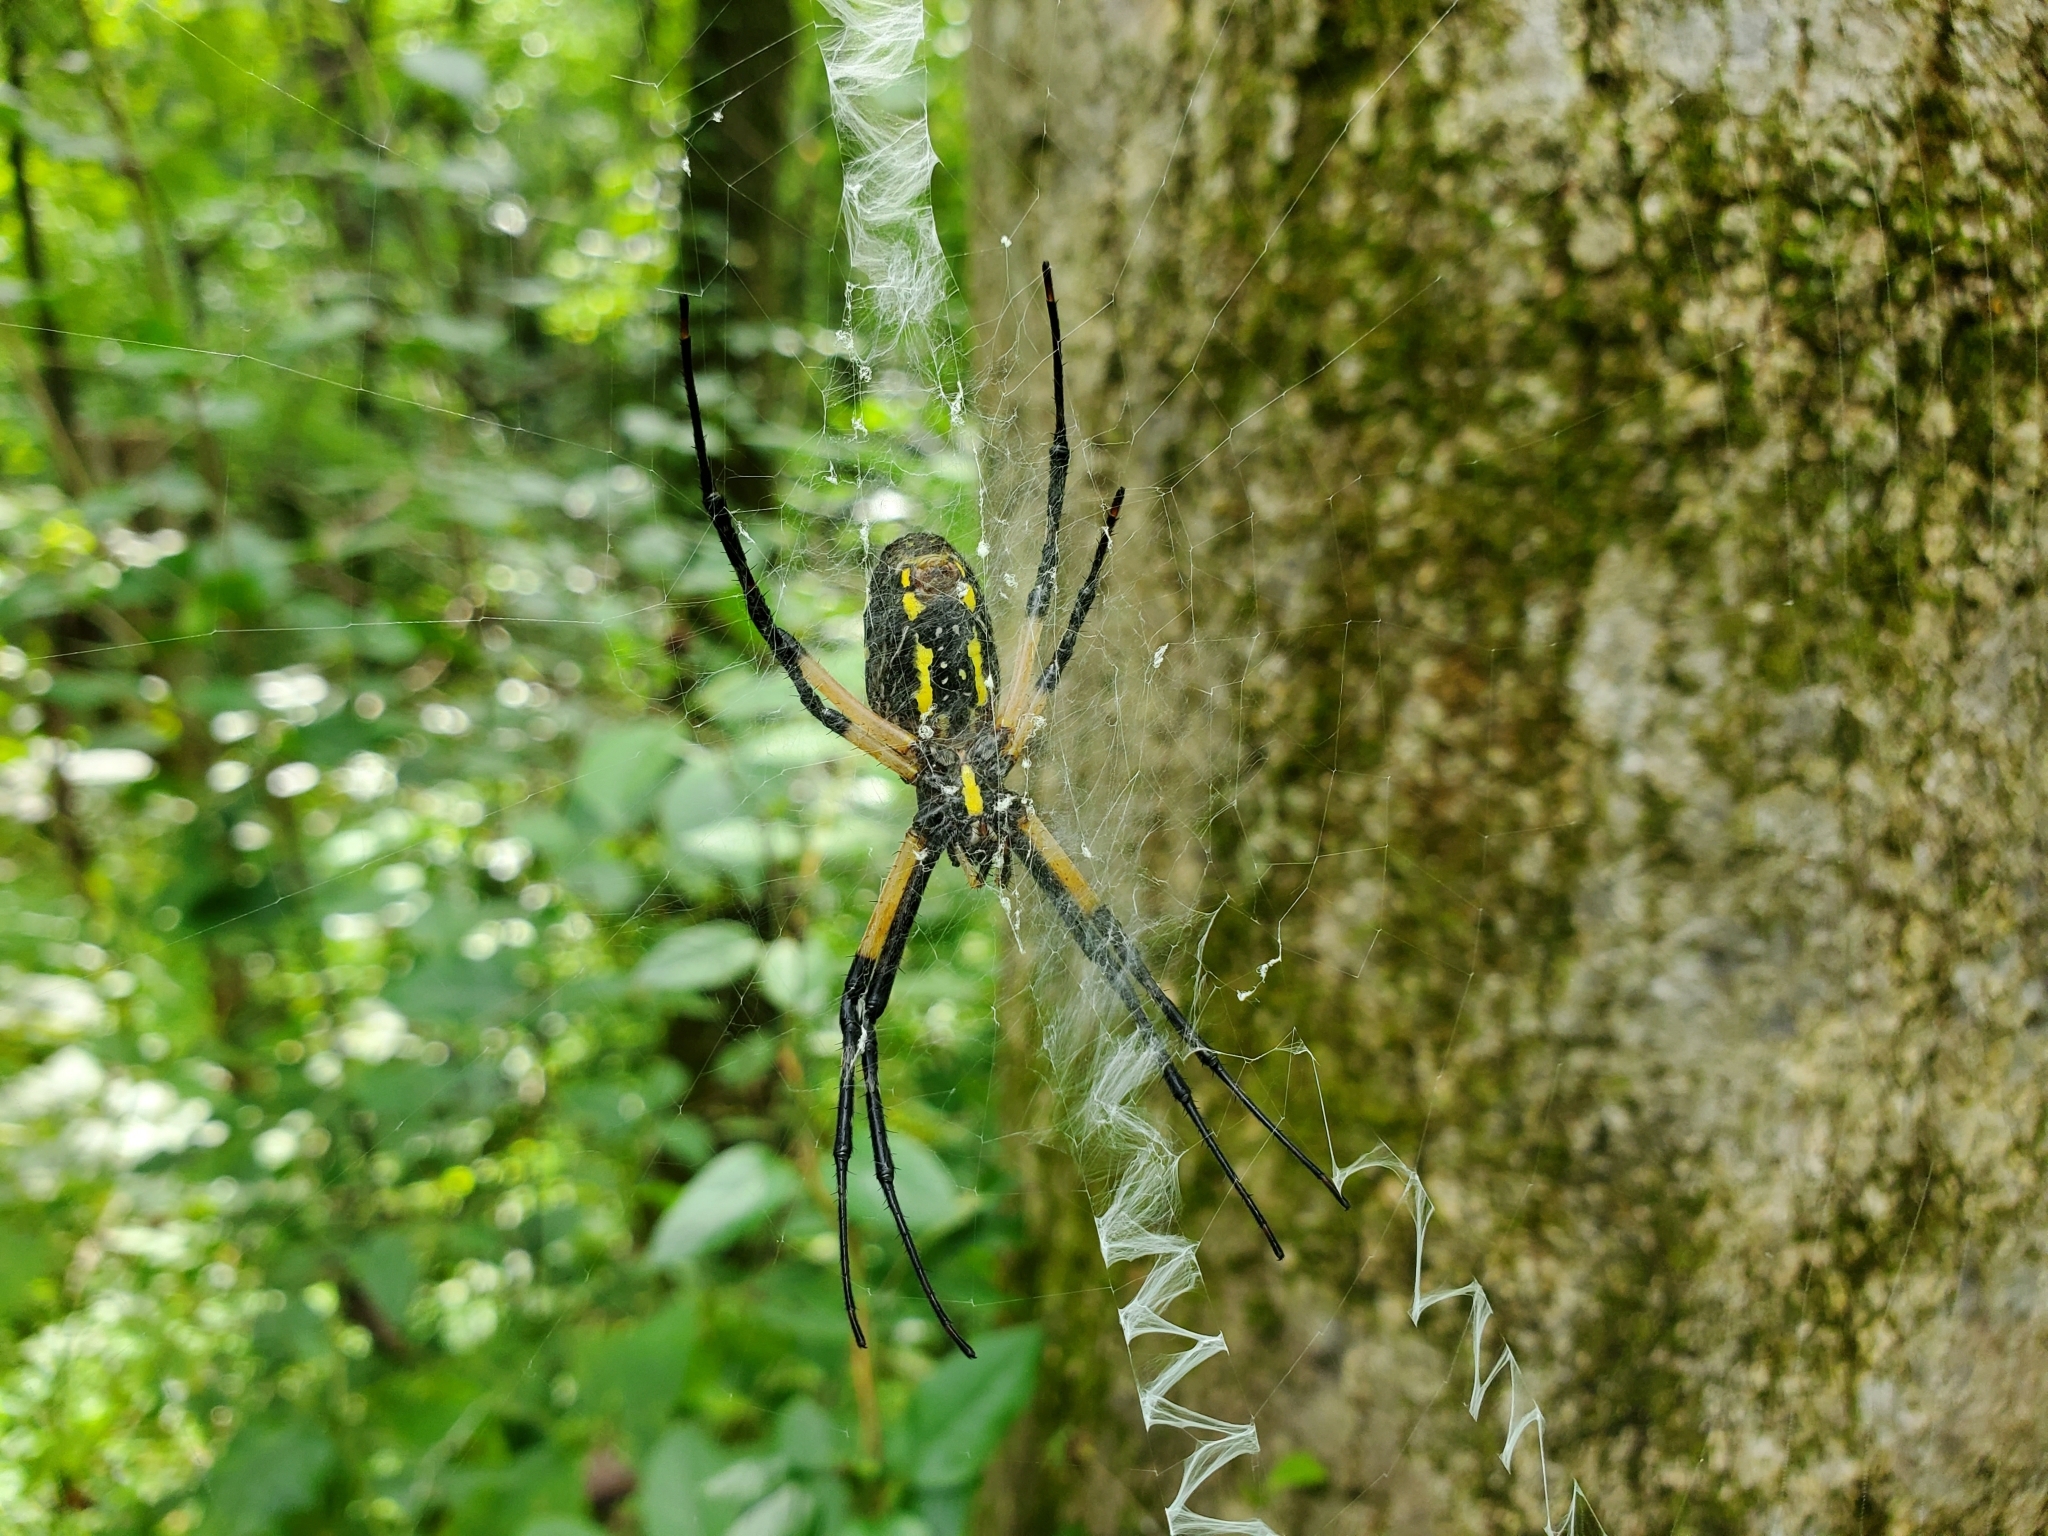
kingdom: Animalia
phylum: Arthropoda
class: Arachnida
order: Araneae
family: Araneidae
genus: Argiope
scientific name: Argiope aurantia
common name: Orb weavers
